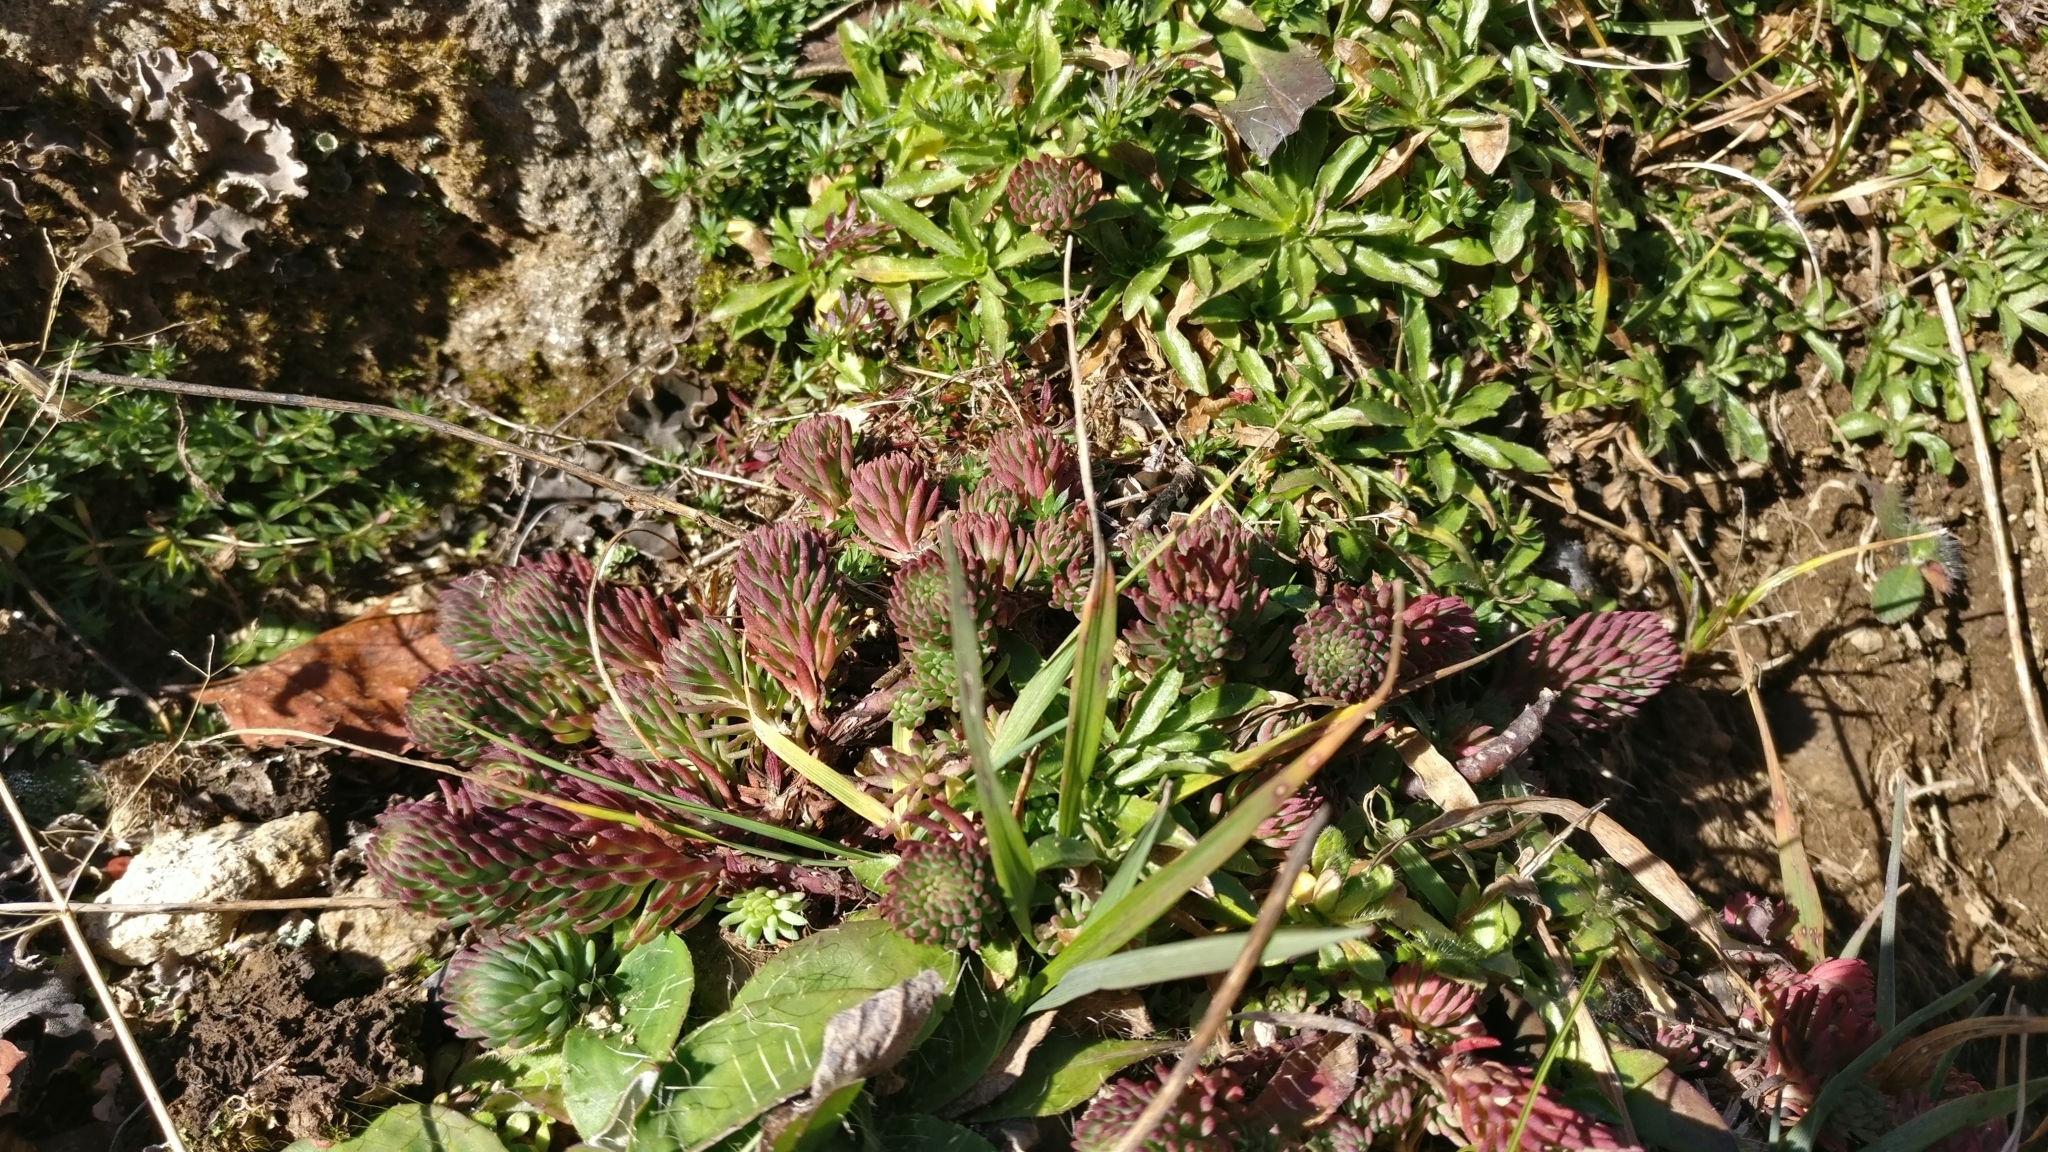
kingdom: Plantae
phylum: Tracheophyta
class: Magnoliopsida
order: Saxifragales
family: Crassulaceae
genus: Petrosedum
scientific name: Petrosedum forsterianum
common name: Forster's stonecrop
